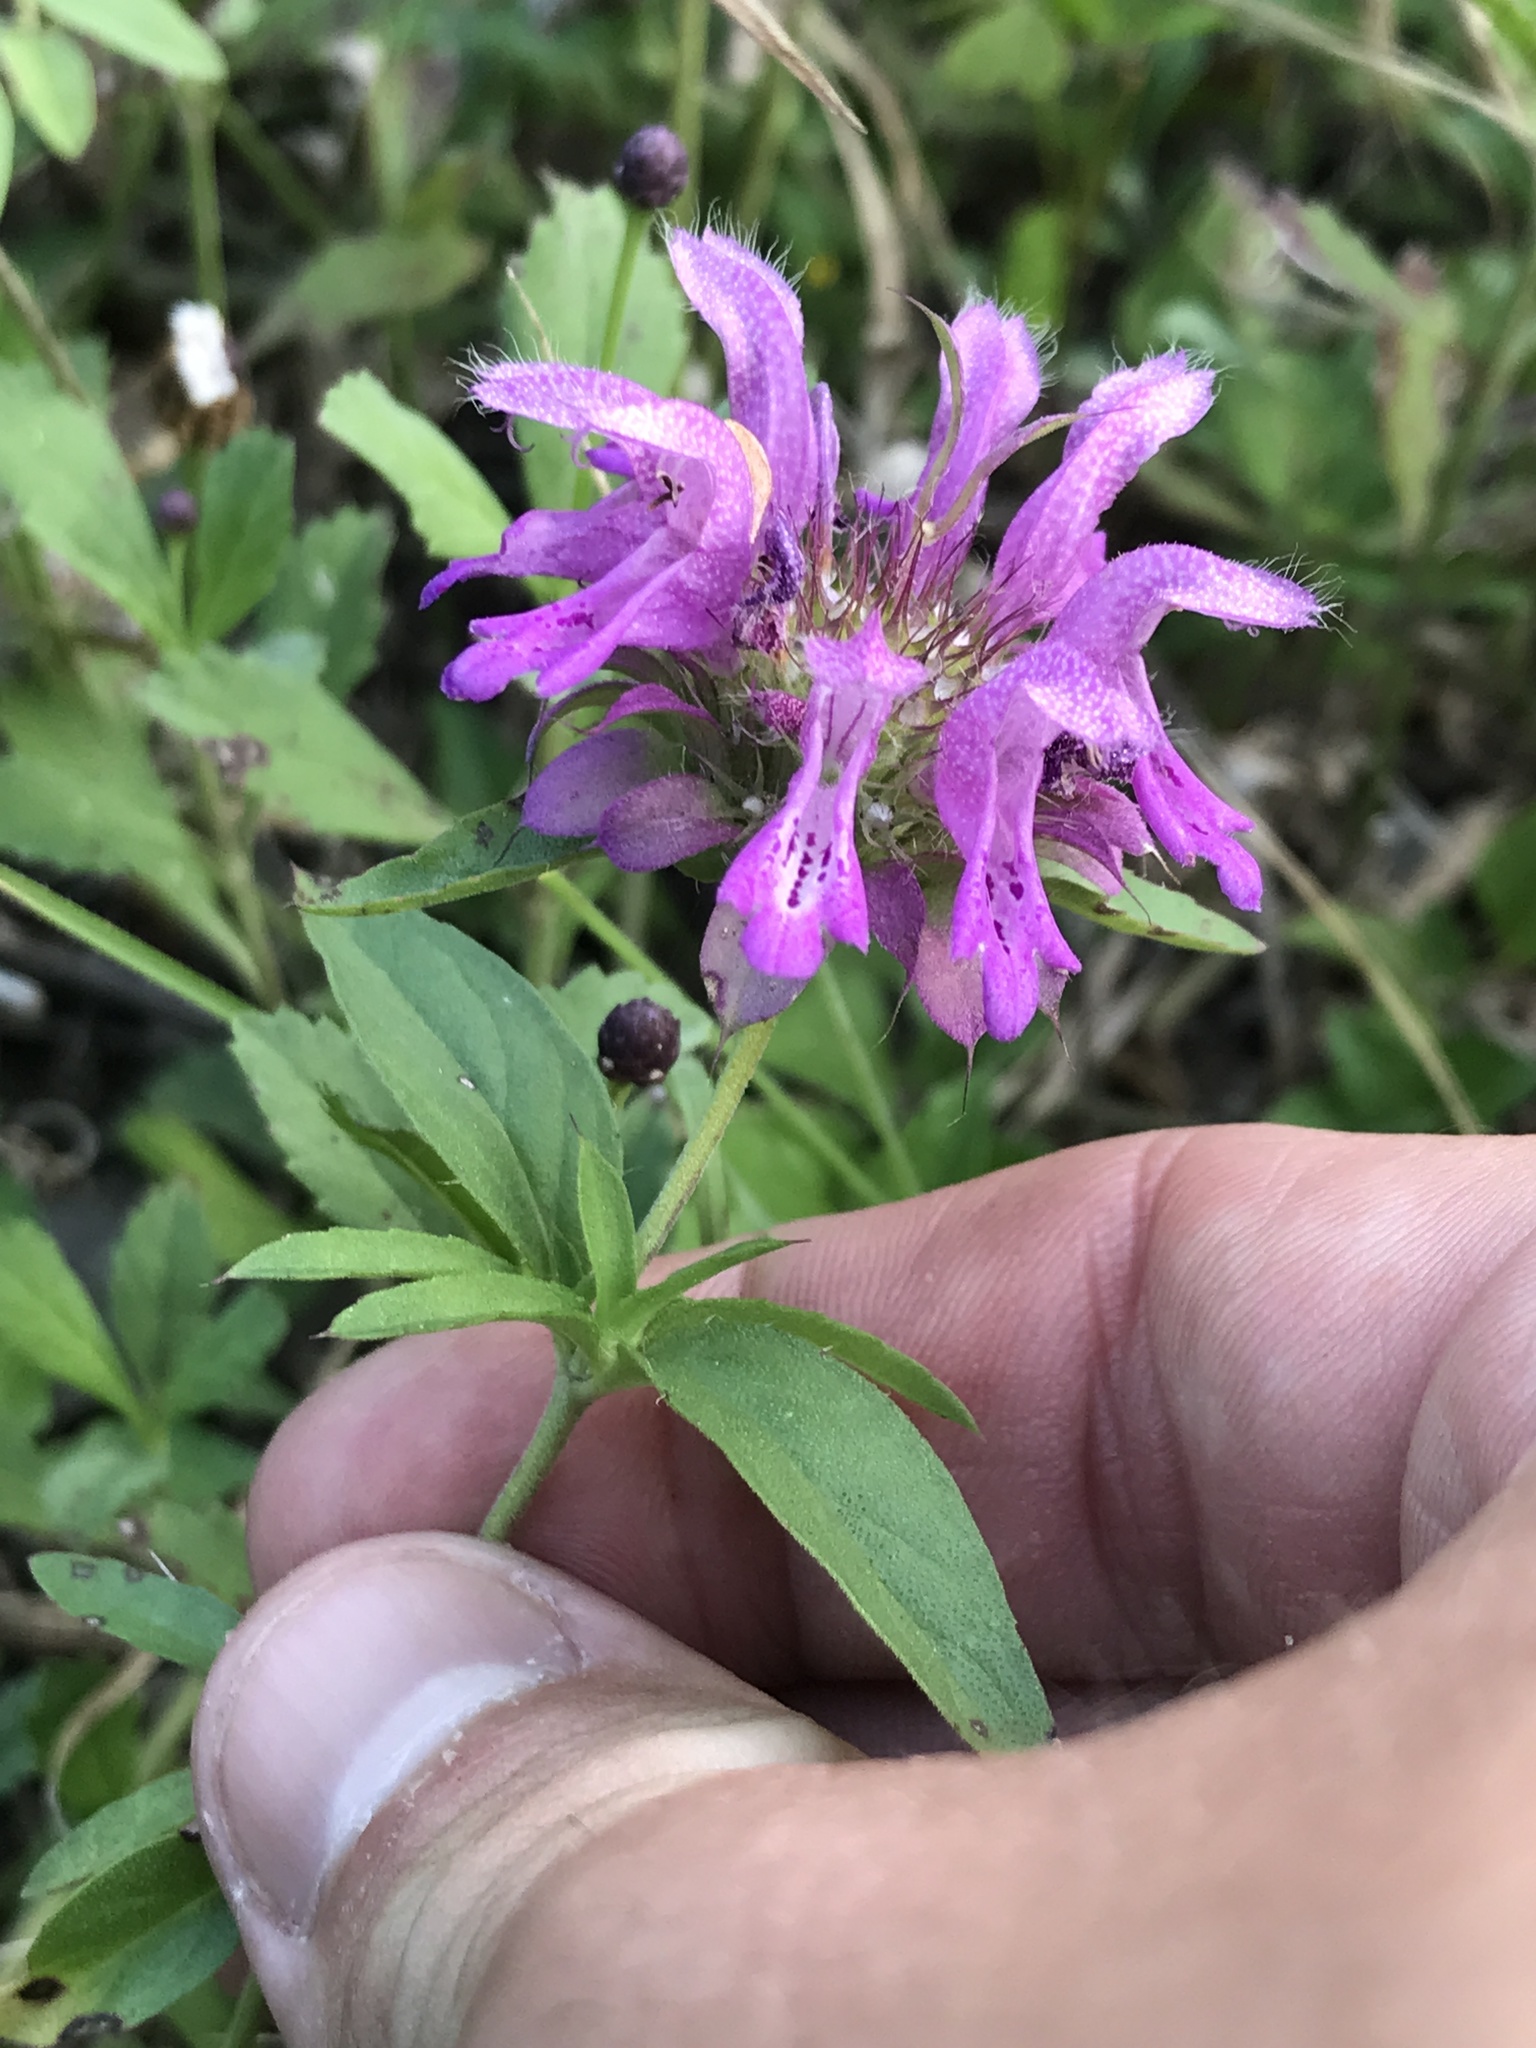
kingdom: Plantae
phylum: Tracheophyta
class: Magnoliopsida
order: Lamiales
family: Lamiaceae
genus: Monarda
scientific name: Monarda citriodora
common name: Lemon beebalm
